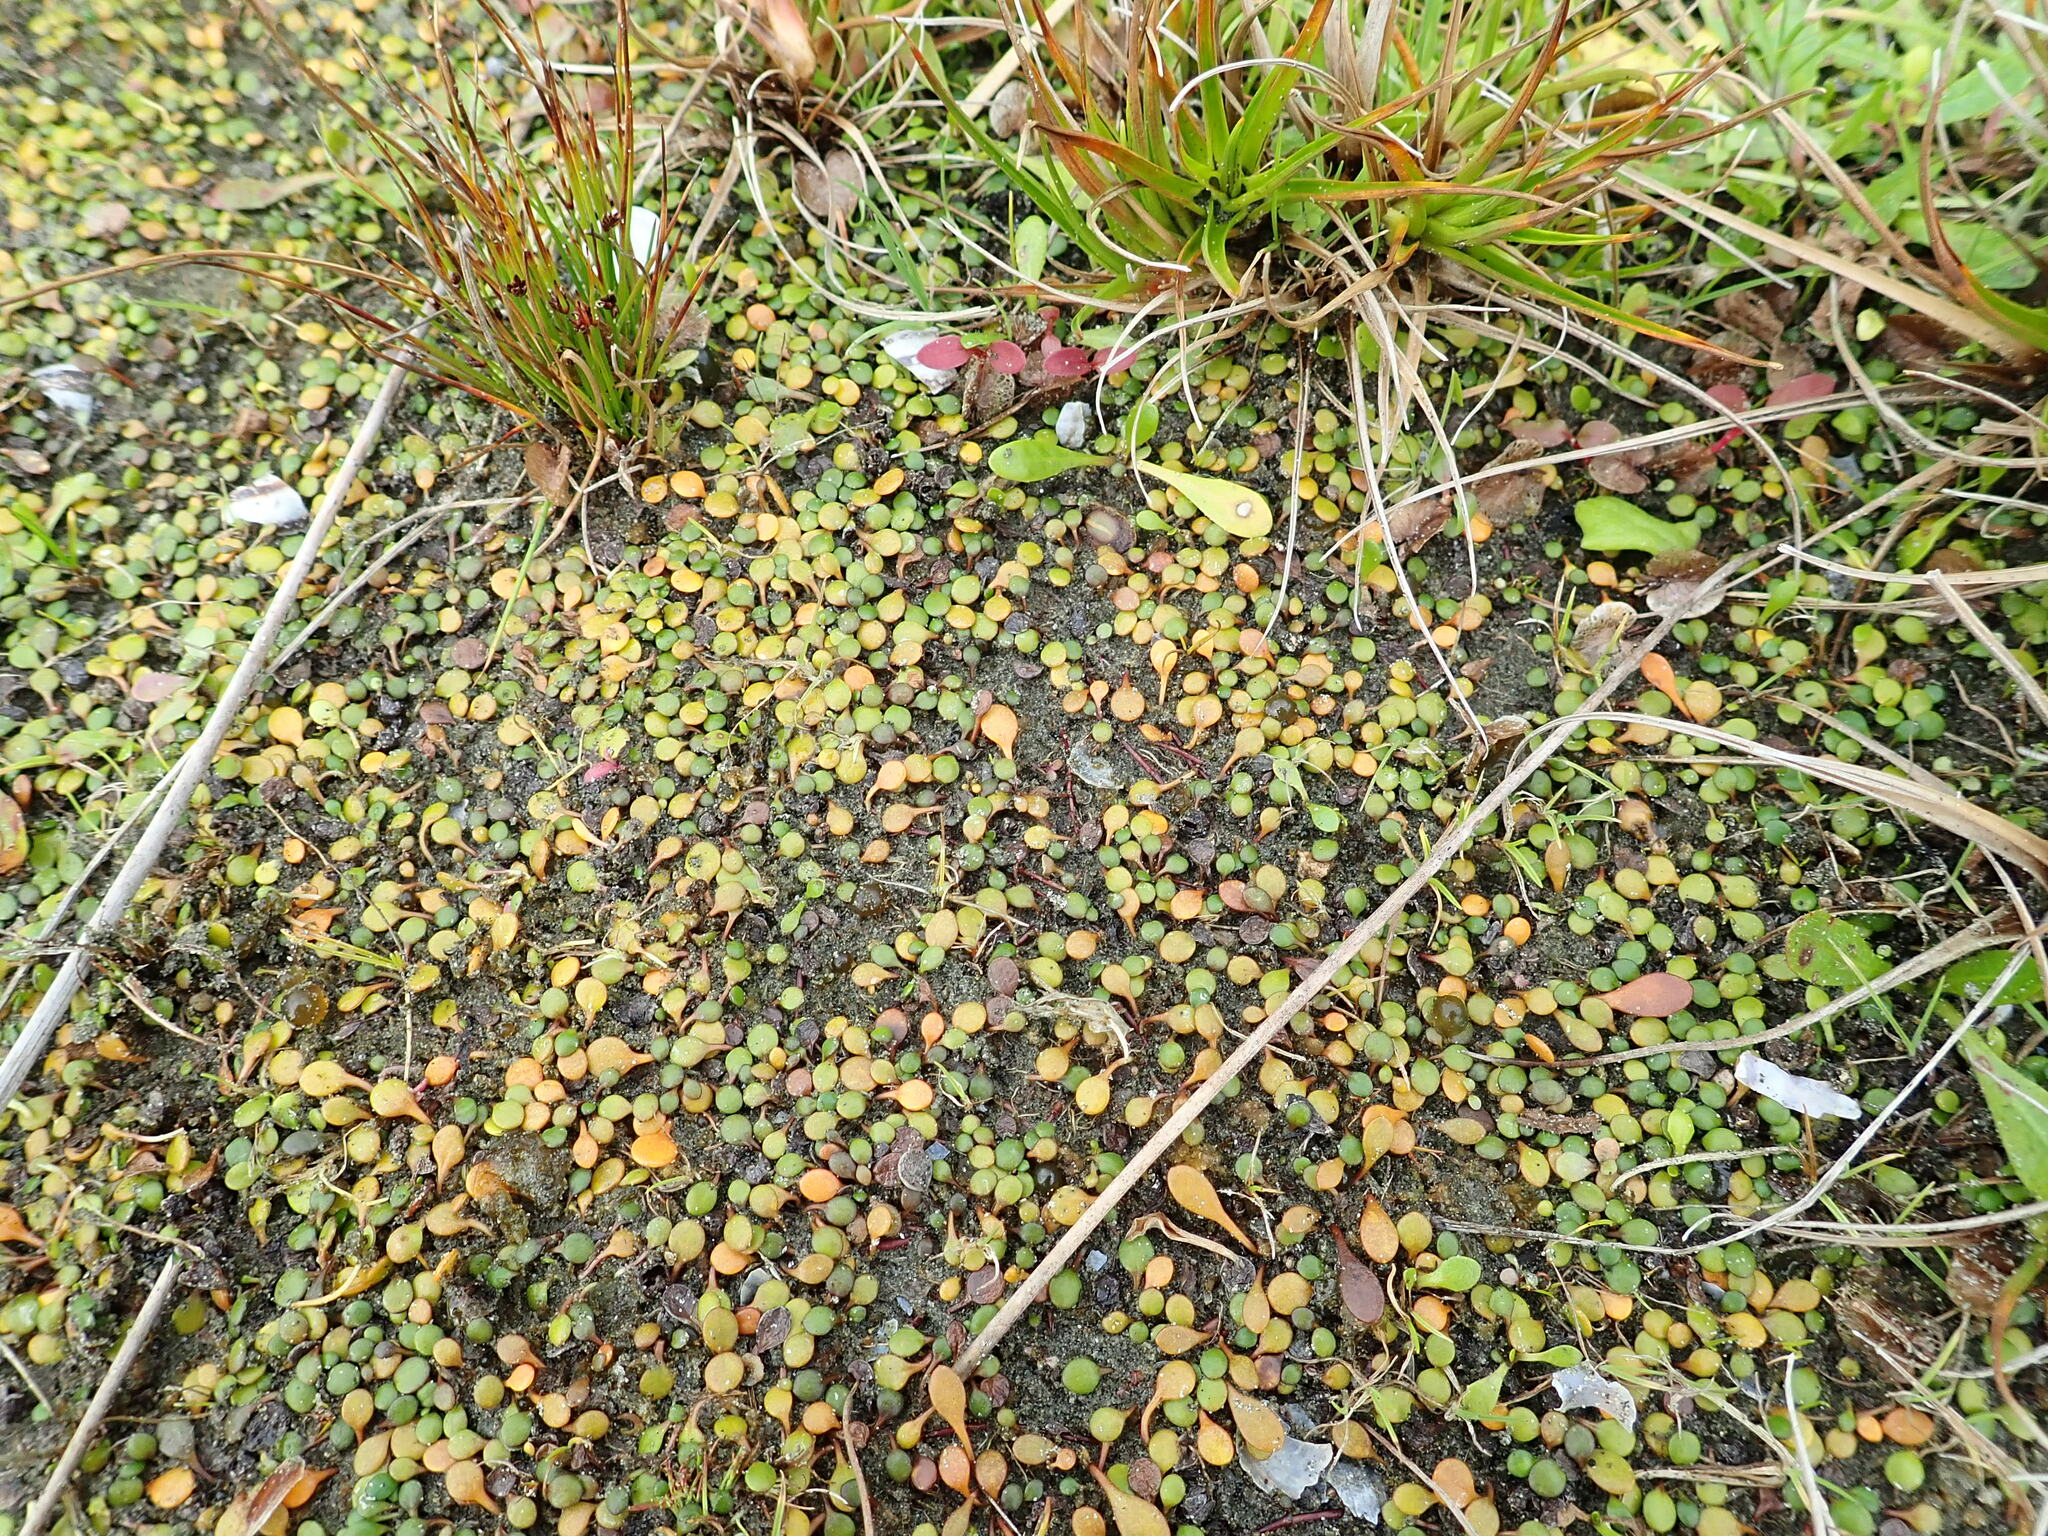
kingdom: Plantae
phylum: Tracheophyta
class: Magnoliopsida
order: Asterales
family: Goodeniaceae
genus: Goodenia
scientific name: Goodenia heenanii
